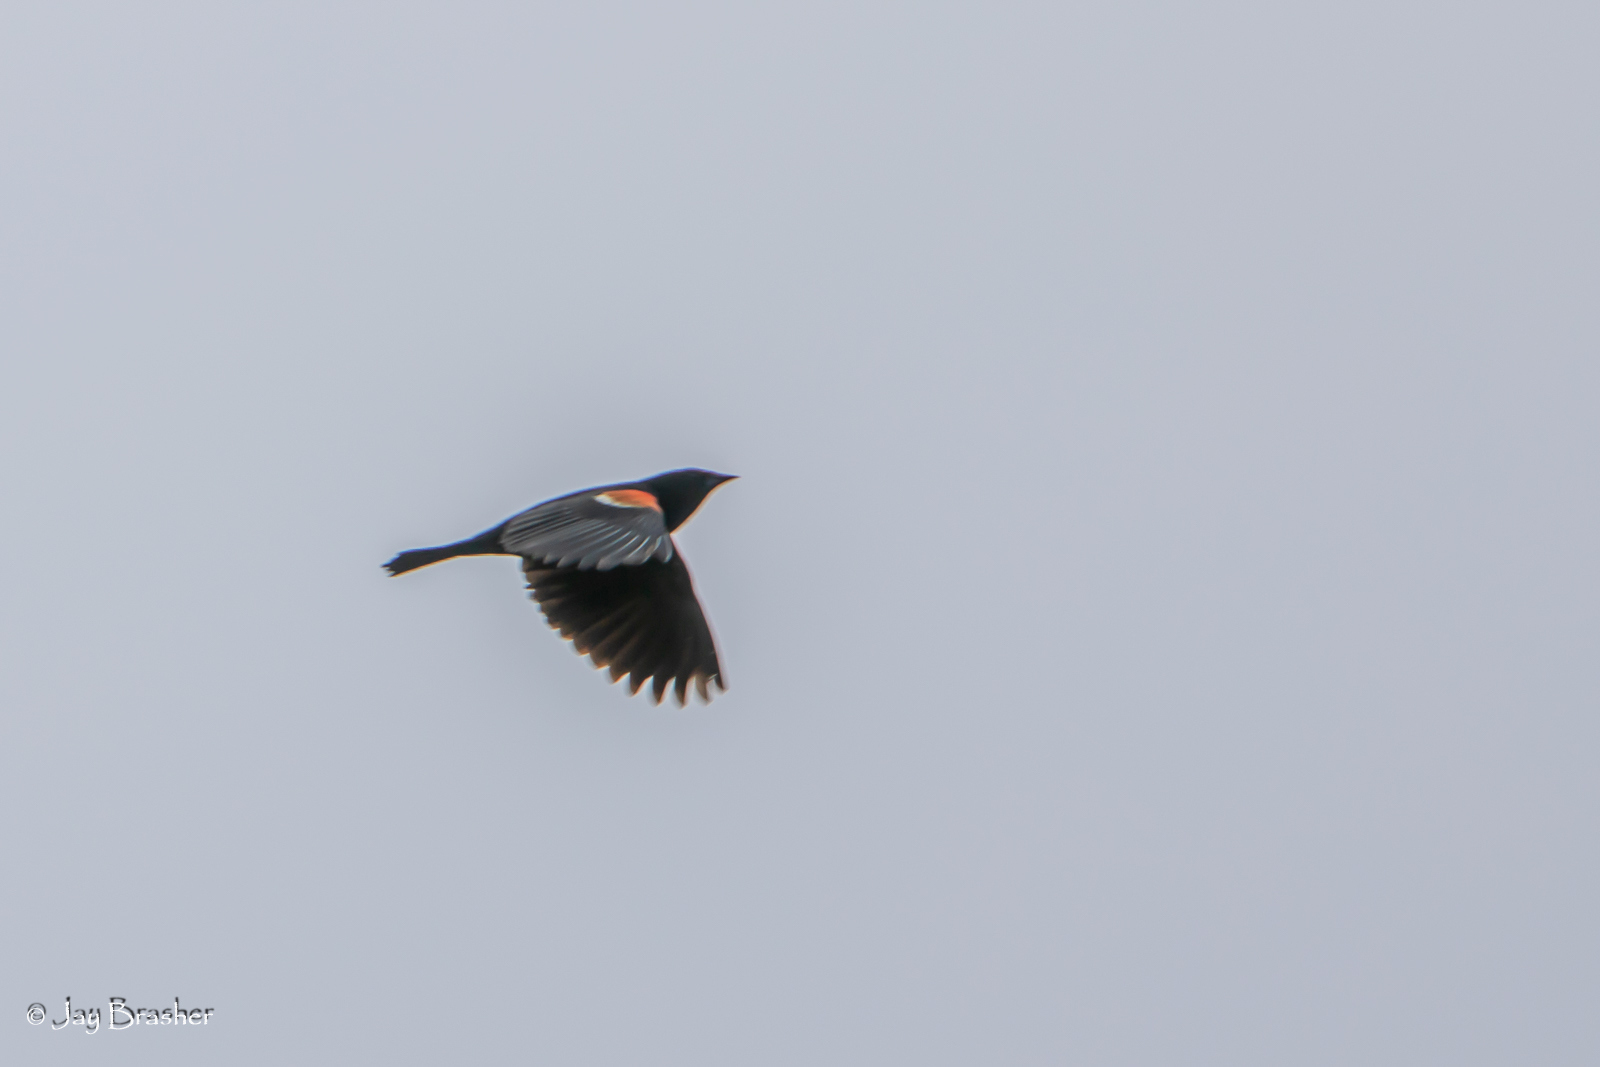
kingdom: Animalia
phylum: Chordata
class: Aves
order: Passeriformes
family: Icteridae
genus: Agelaius
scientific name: Agelaius phoeniceus
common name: Red-winged blackbird
